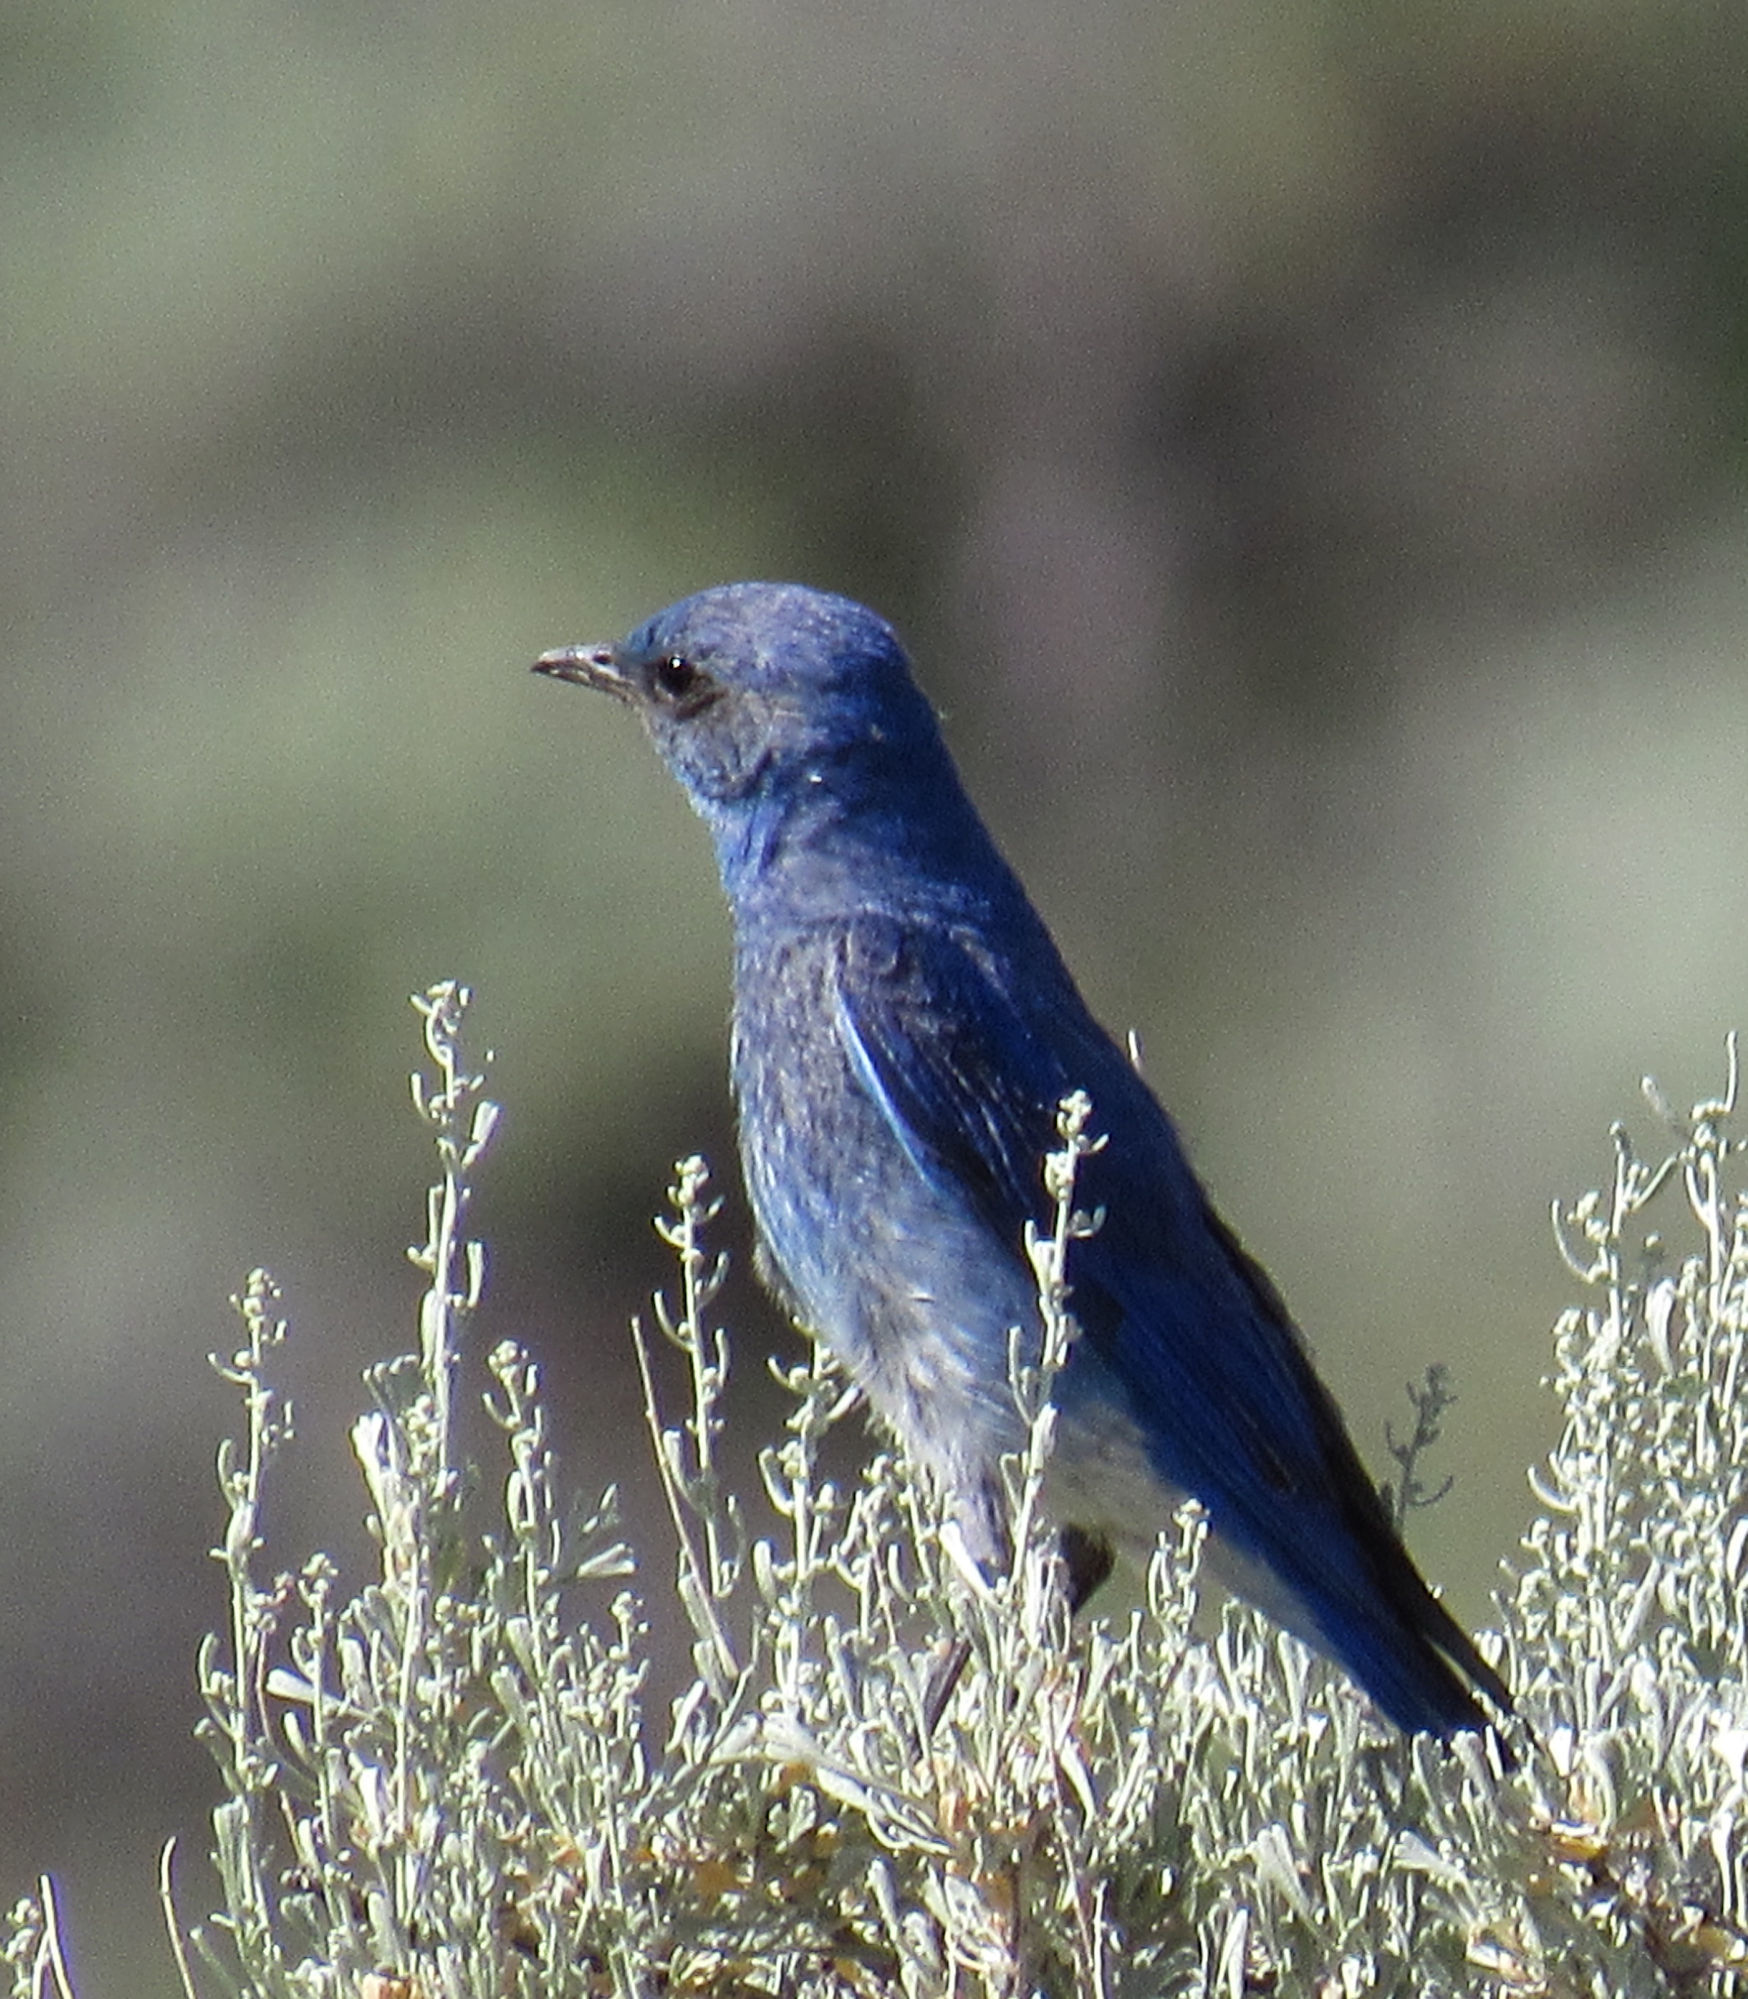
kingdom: Animalia
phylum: Chordata
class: Aves
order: Passeriformes
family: Turdidae
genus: Sialia
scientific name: Sialia currucoides
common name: Mountain bluebird
